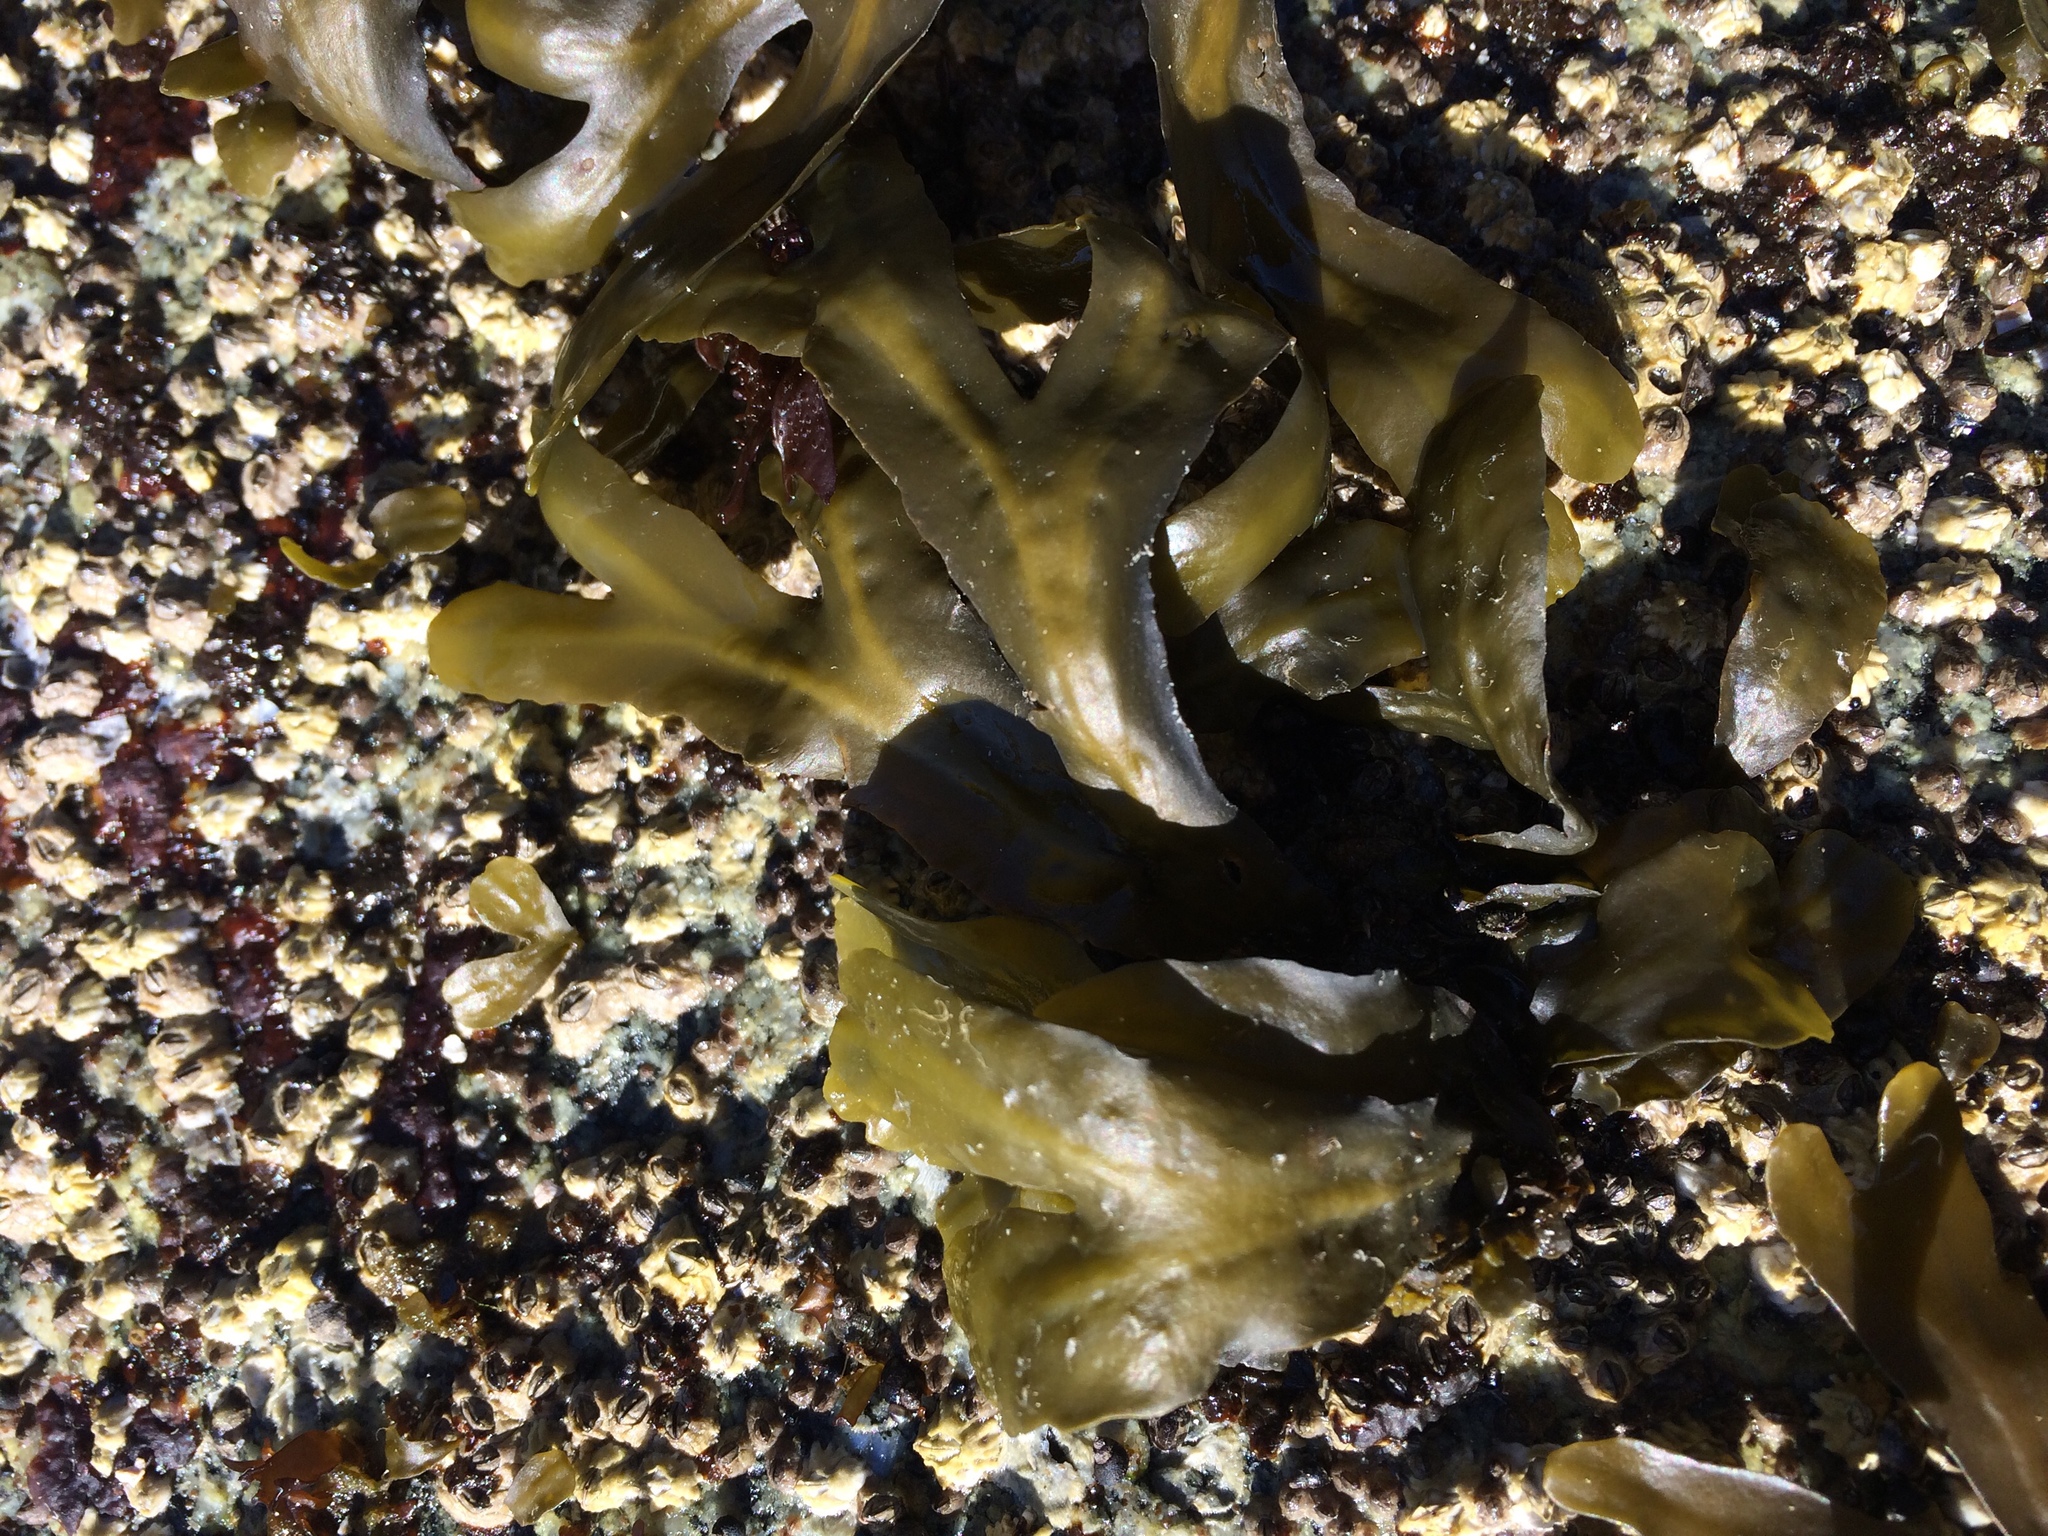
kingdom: Chromista
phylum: Ochrophyta
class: Phaeophyceae
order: Fucales
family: Fucaceae
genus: Fucus
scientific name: Fucus distichus
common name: Rockweed
